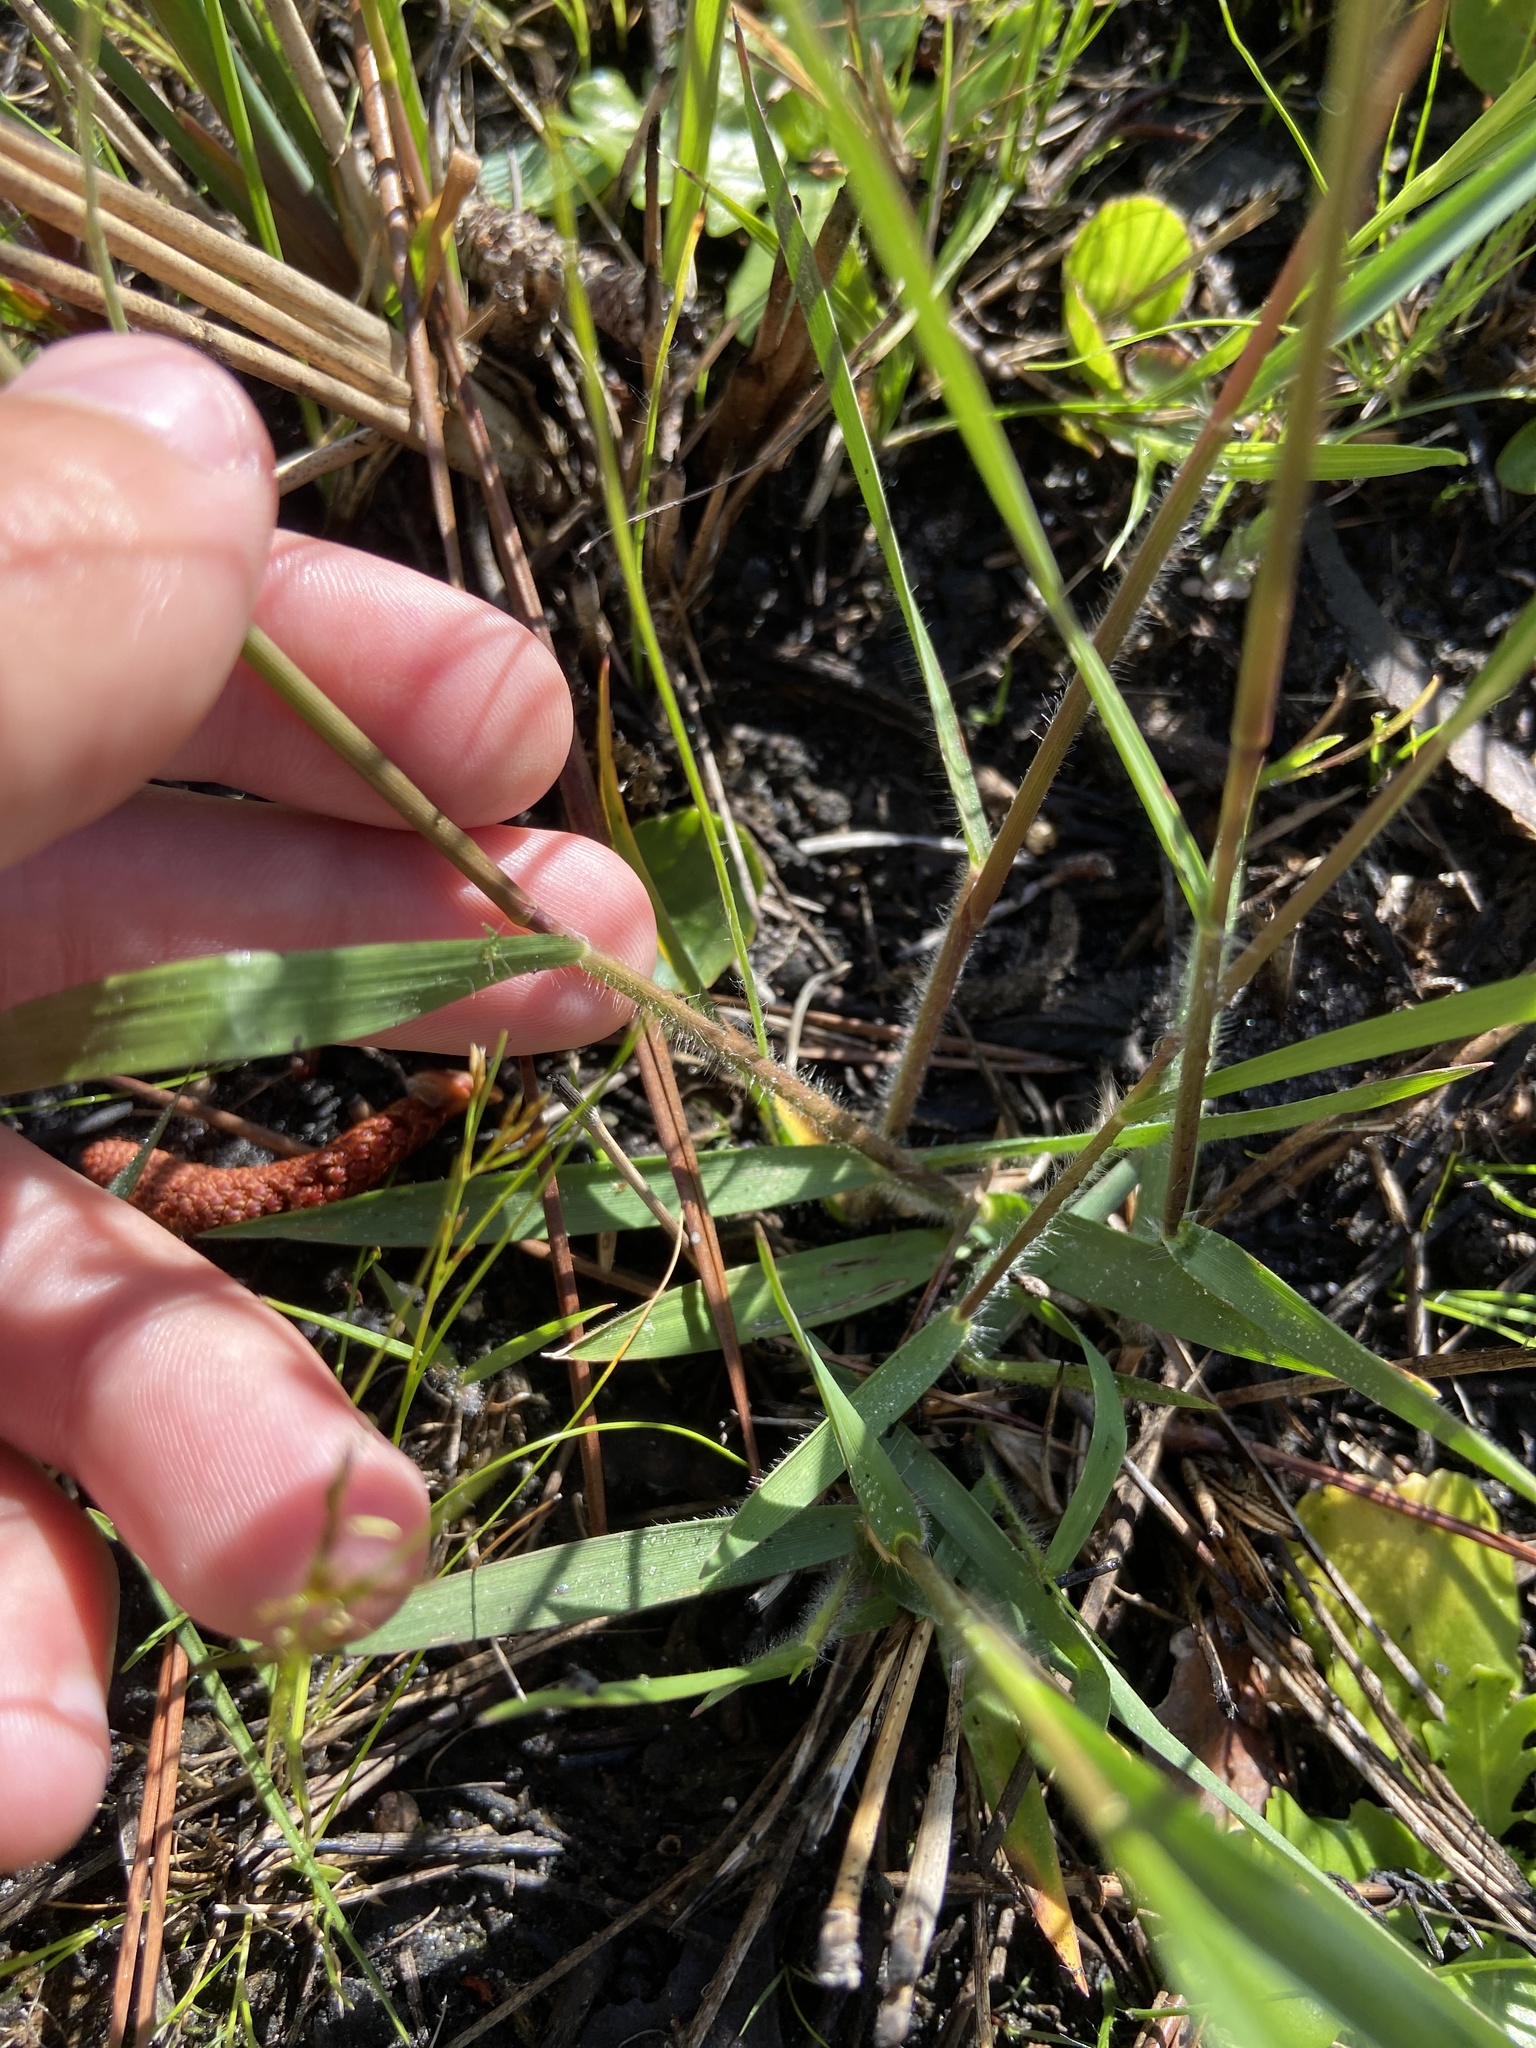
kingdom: Plantae
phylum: Tracheophyta
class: Liliopsida
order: Poales
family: Poaceae
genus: Dichanthelium
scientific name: Dichanthelium neuranthum
